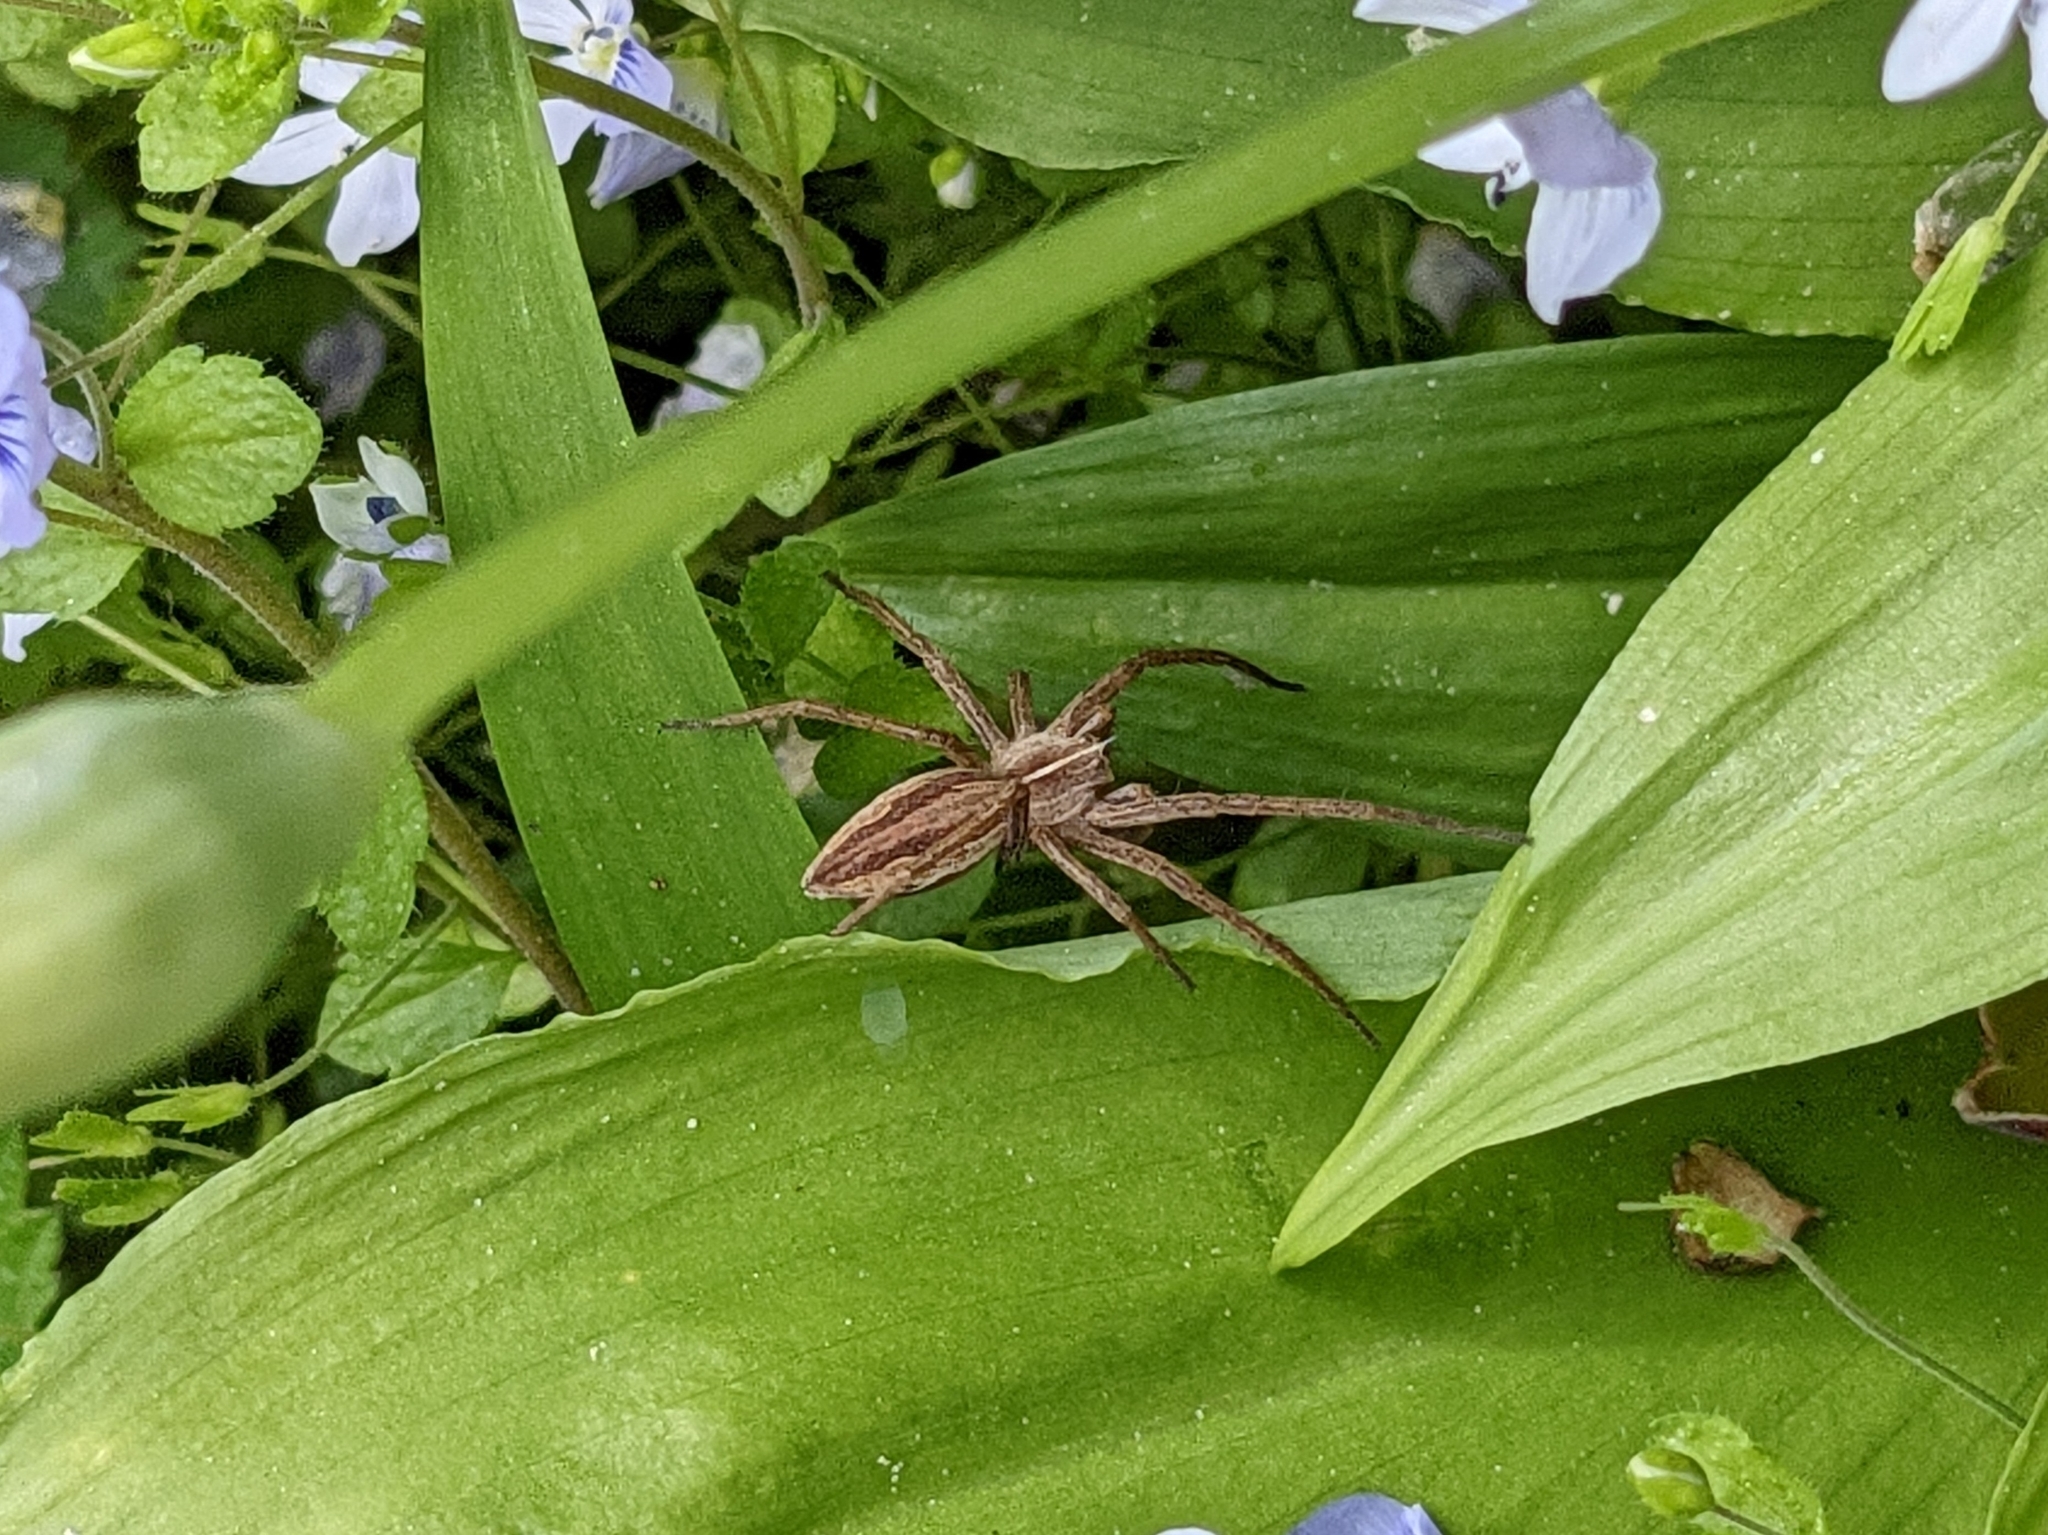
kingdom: Animalia
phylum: Arthropoda
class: Arachnida
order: Araneae
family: Pisauridae
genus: Pisaura
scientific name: Pisaura mirabilis
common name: Tent spider
